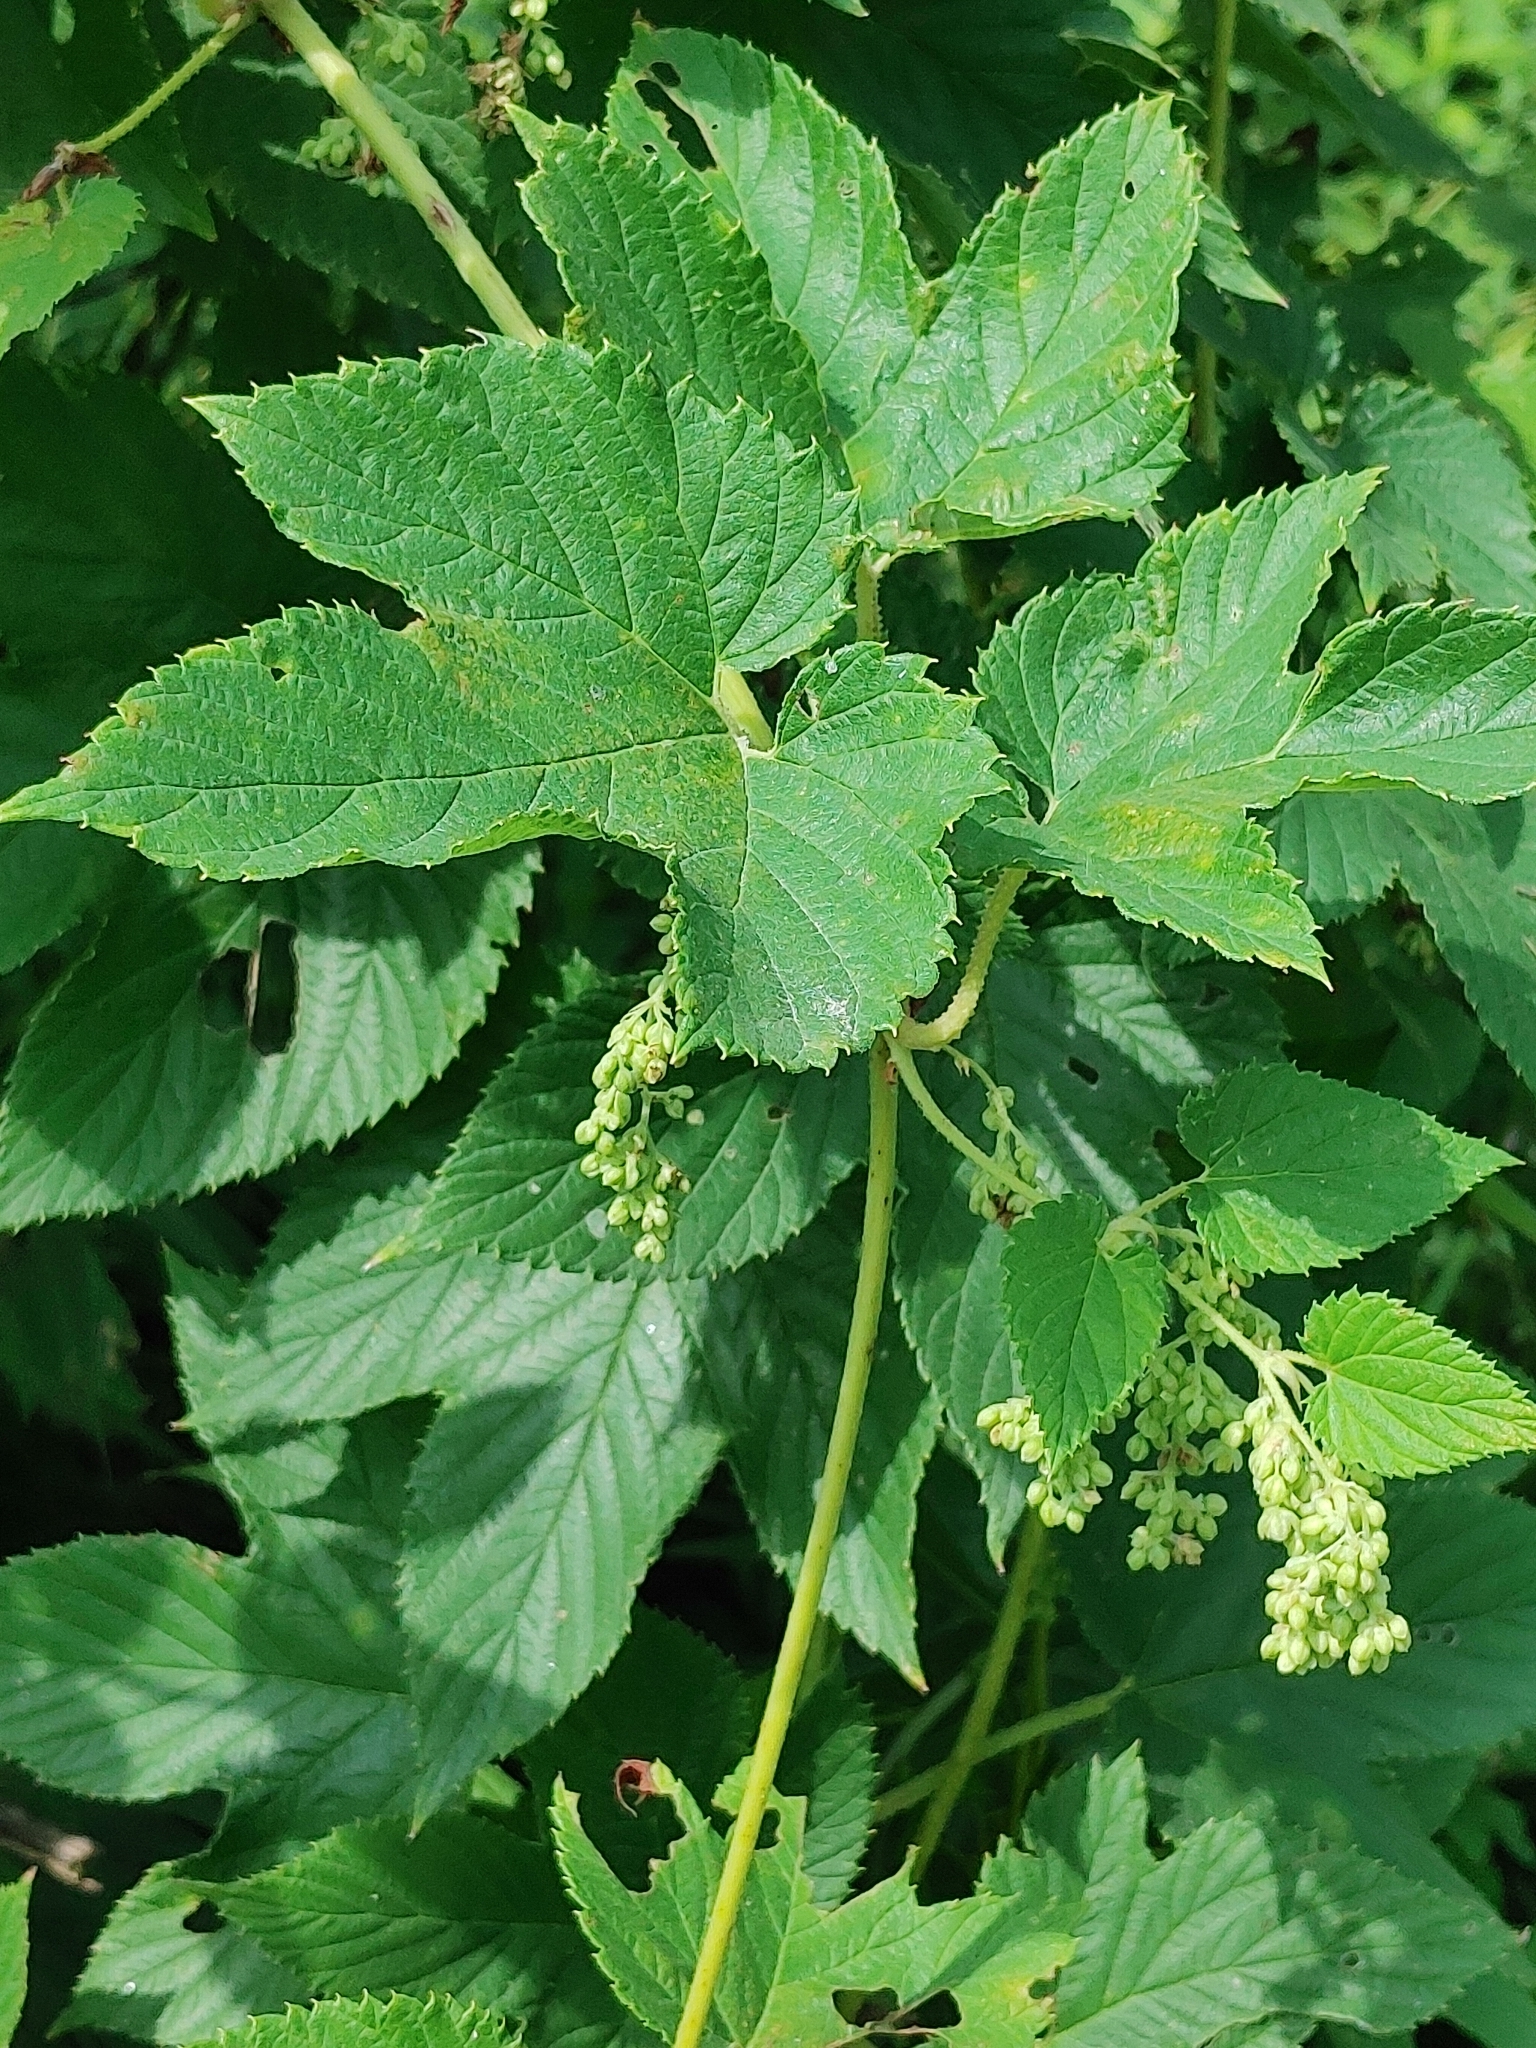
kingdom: Plantae
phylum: Tracheophyta
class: Magnoliopsida
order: Rosales
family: Cannabaceae
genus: Humulus
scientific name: Humulus lupulus
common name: Hop
